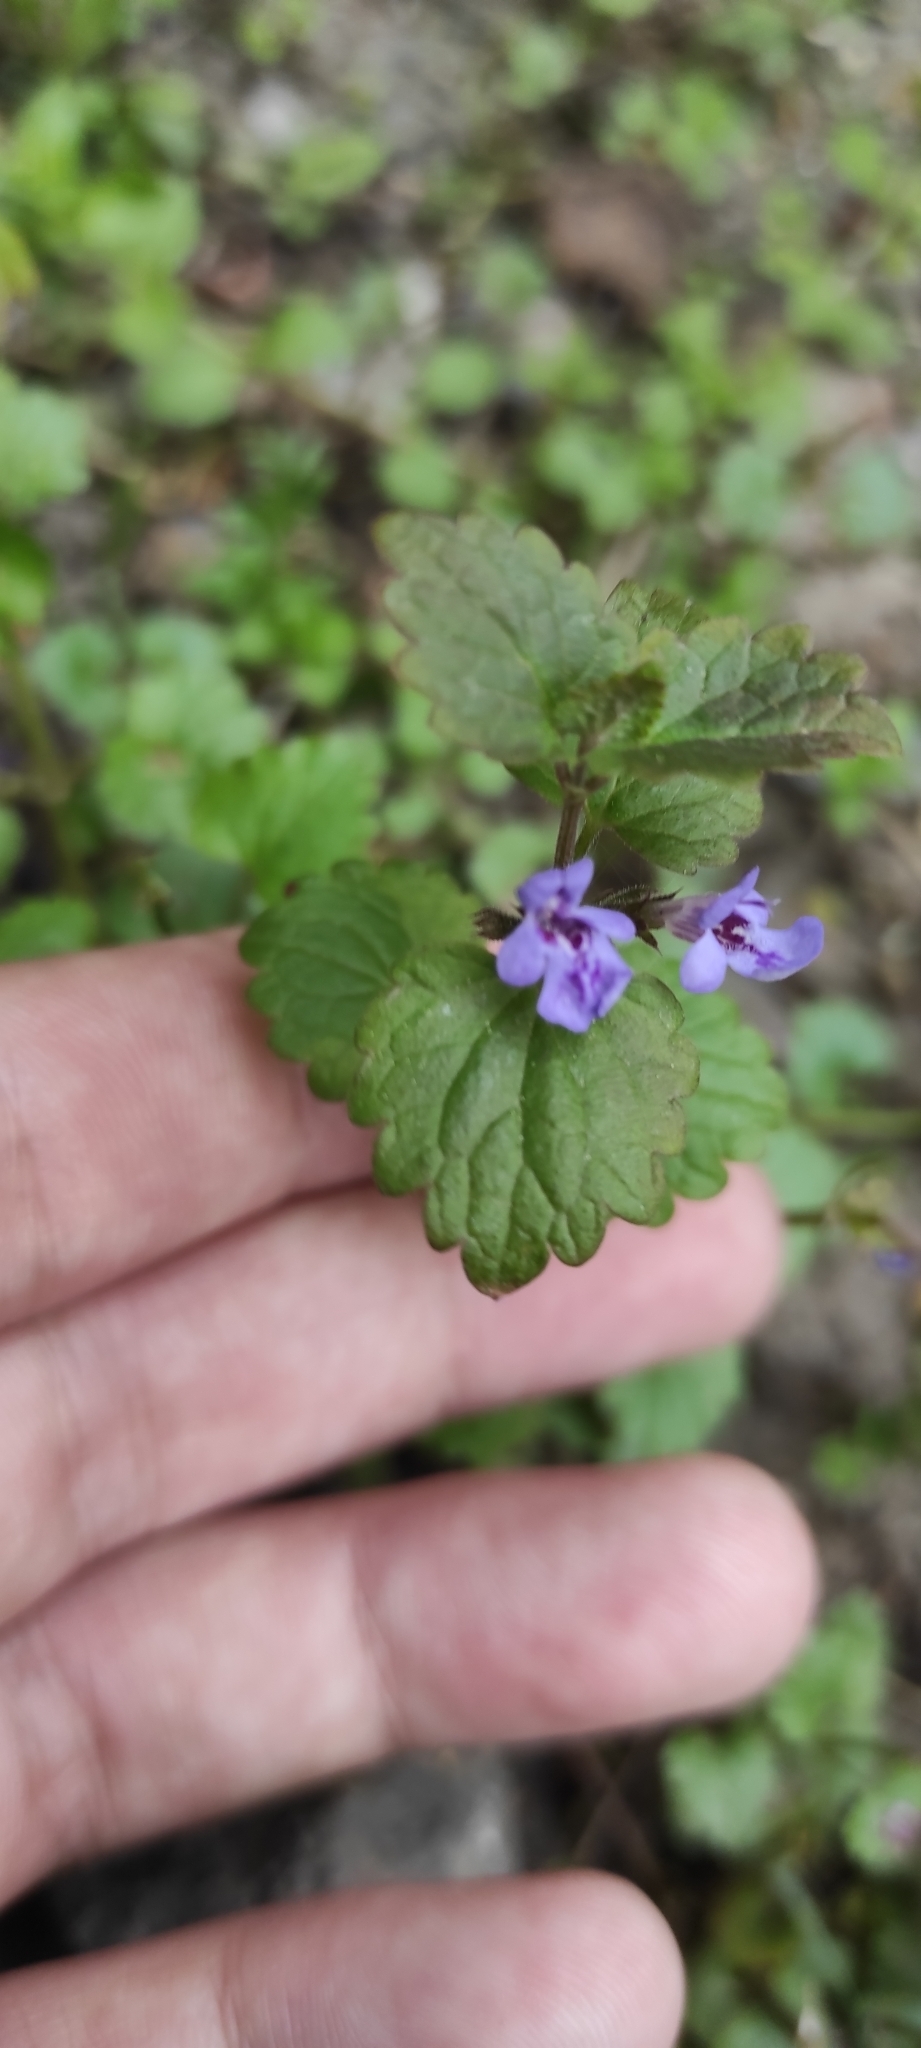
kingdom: Plantae
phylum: Tracheophyta
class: Magnoliopsida
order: Lamiales
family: Lamiaceae
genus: Glechoma
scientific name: Glechoma hederacea
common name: Ground ivy
